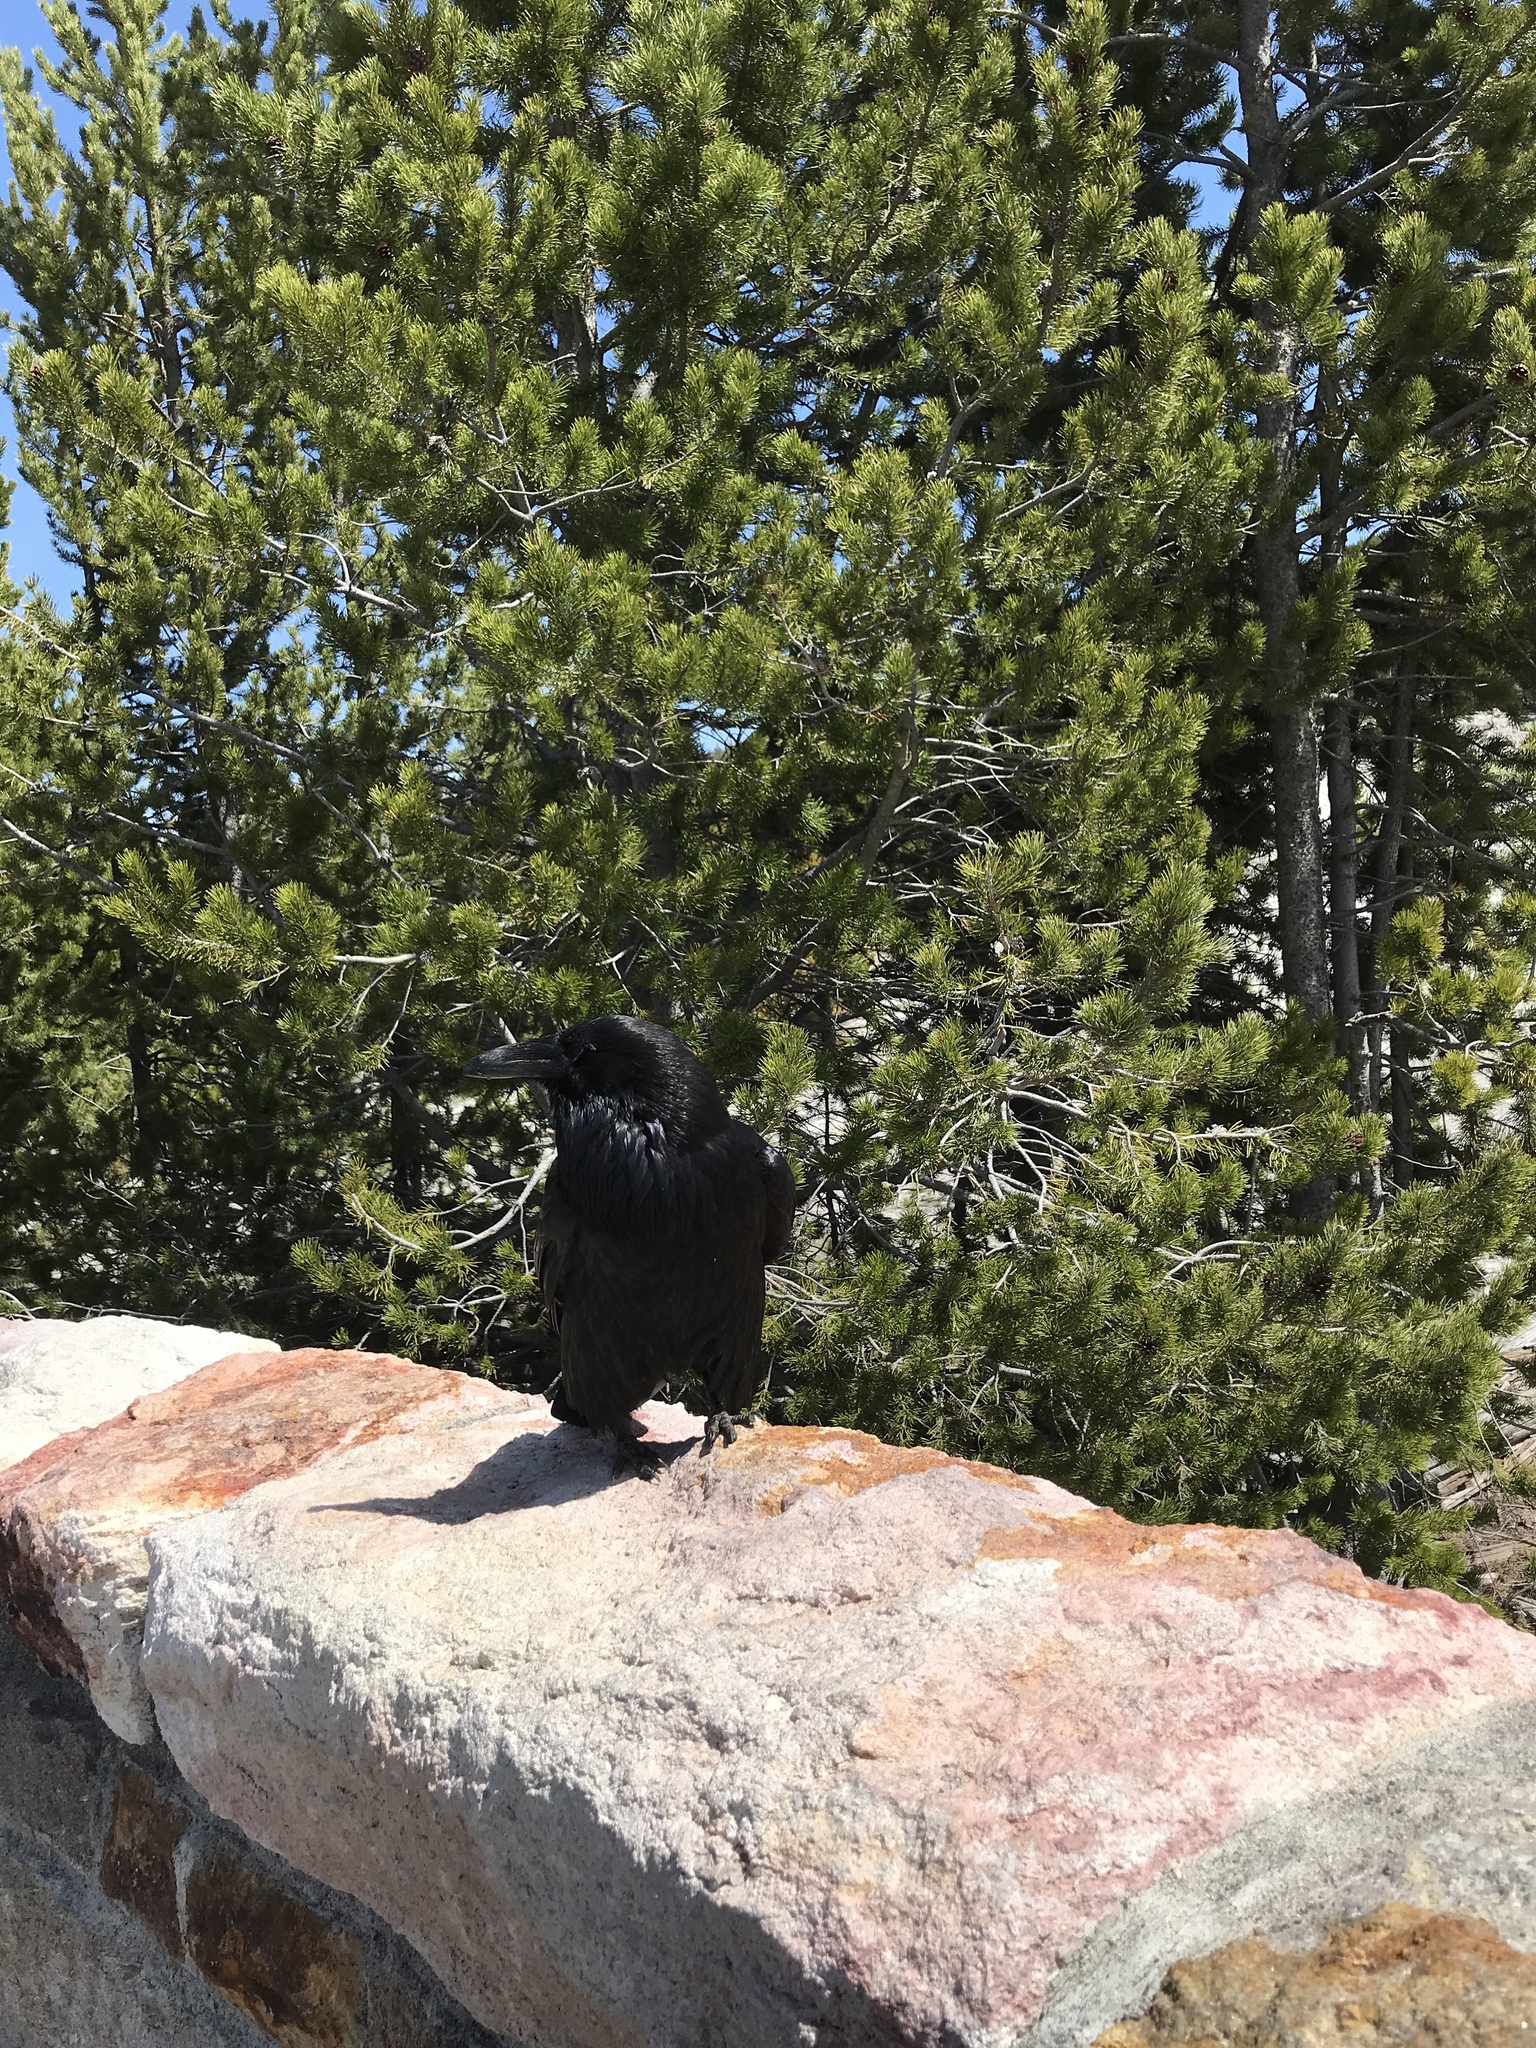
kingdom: Animalia
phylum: Chordata
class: Aves
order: Passeriformes
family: Corvidae
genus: Corvus
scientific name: Corvus corax
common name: Common raven
